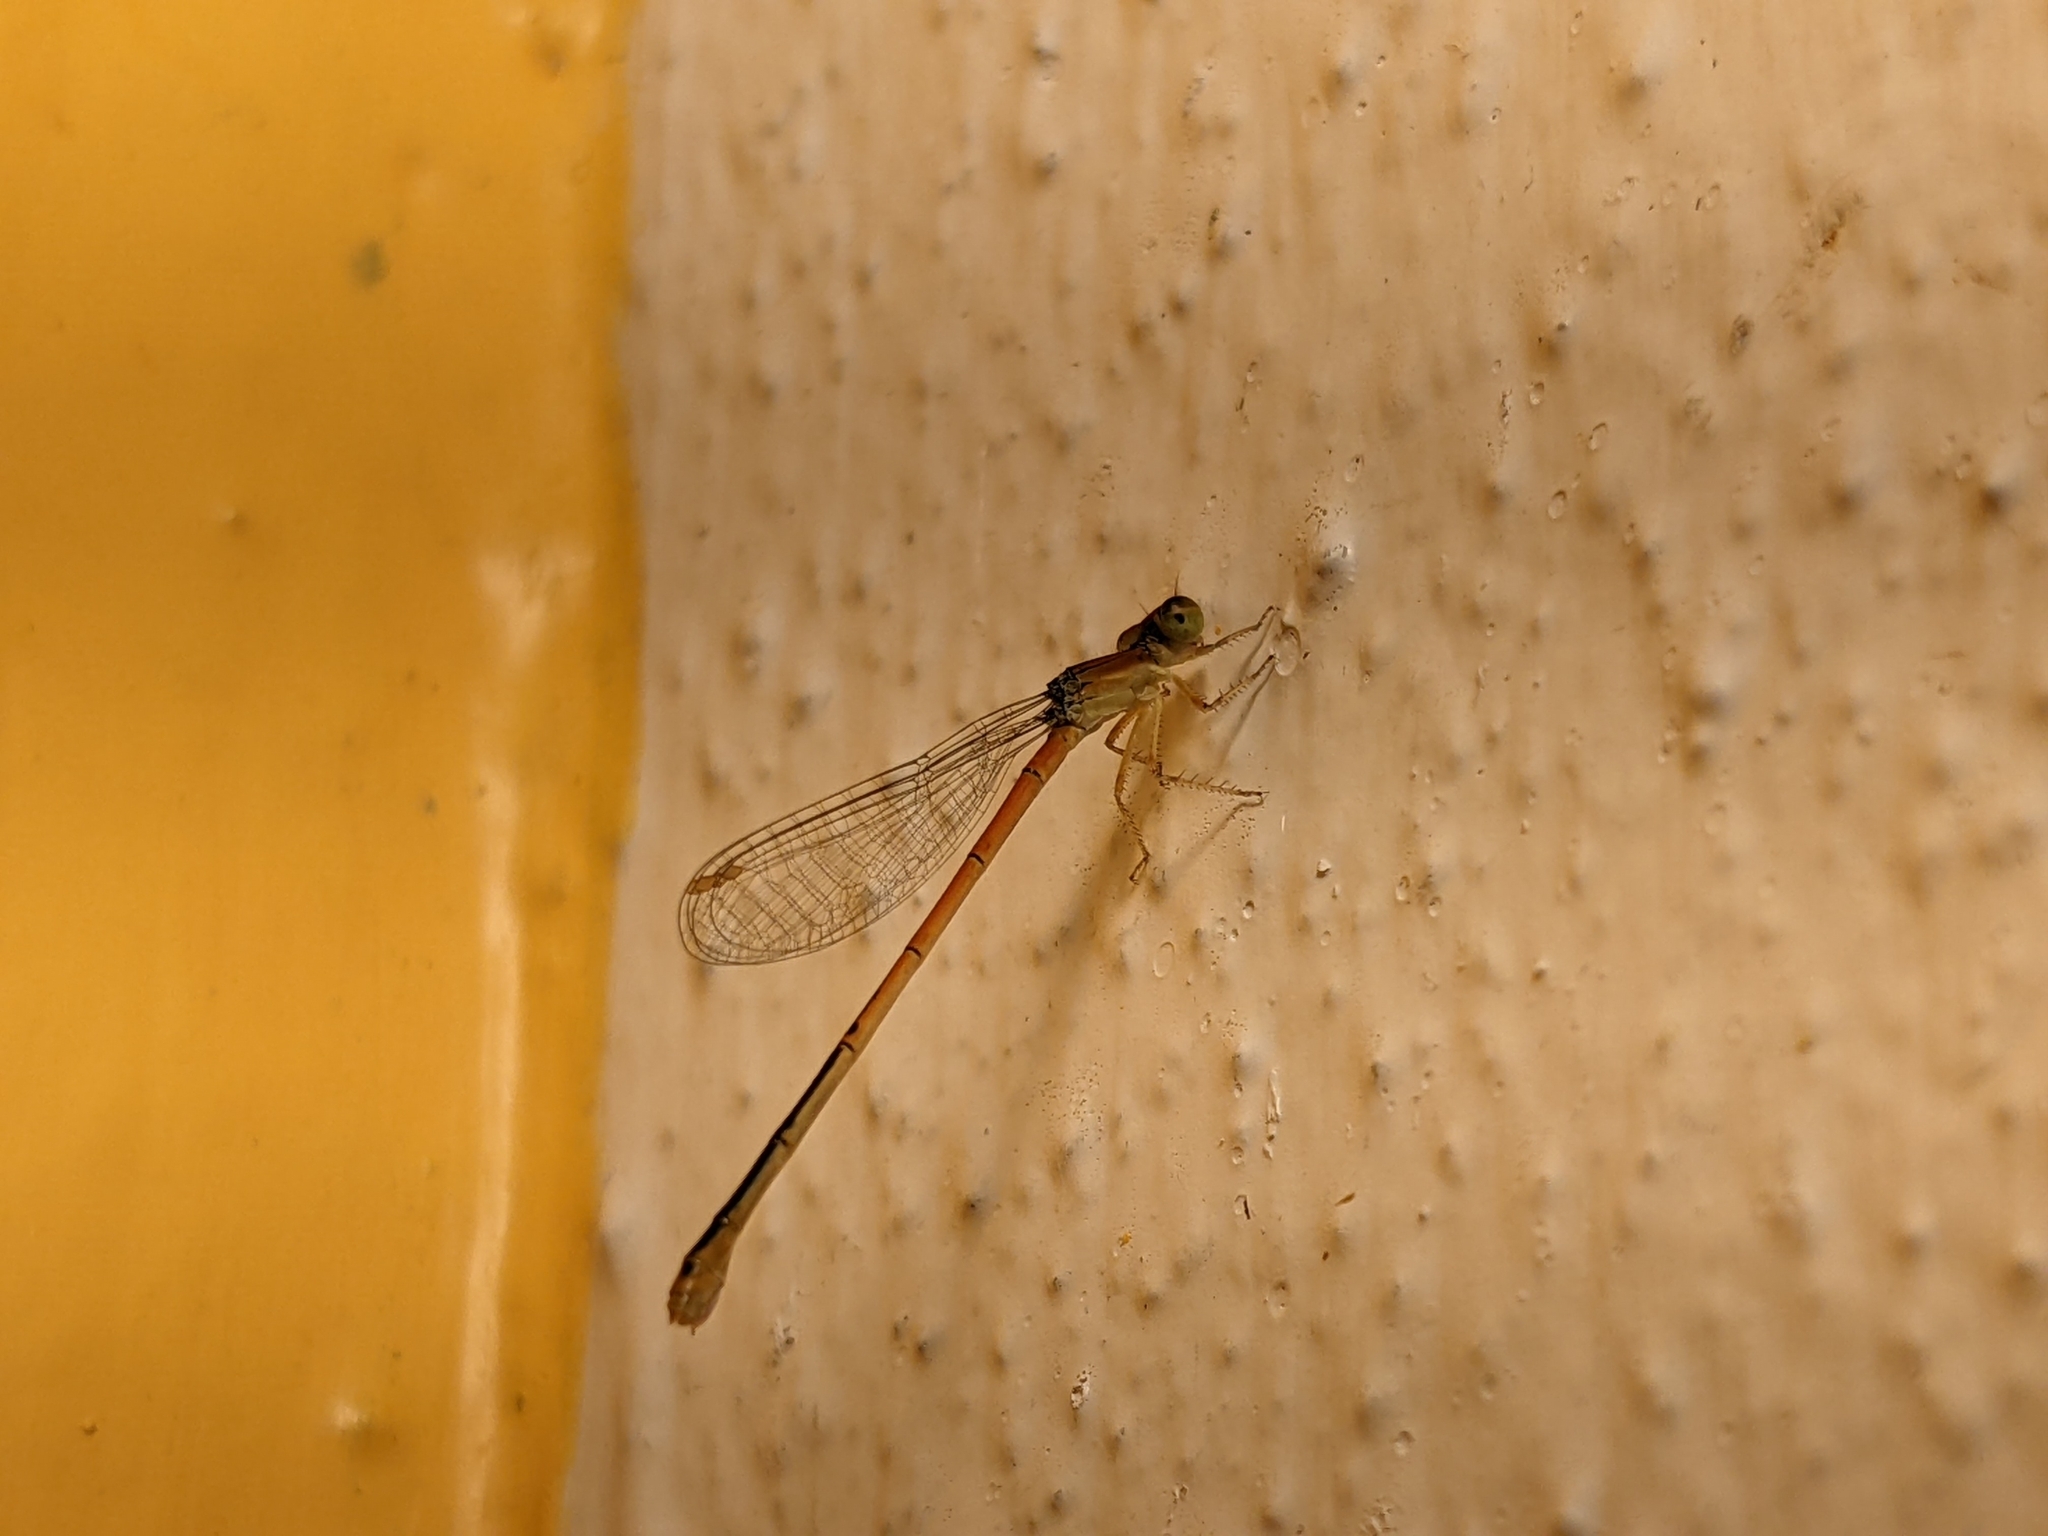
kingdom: Animalia
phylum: Arthropoda
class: Insecta
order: Odonata
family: Coenagrionidae
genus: Ischnura
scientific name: Ischnura hastata
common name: Citrine forktail
